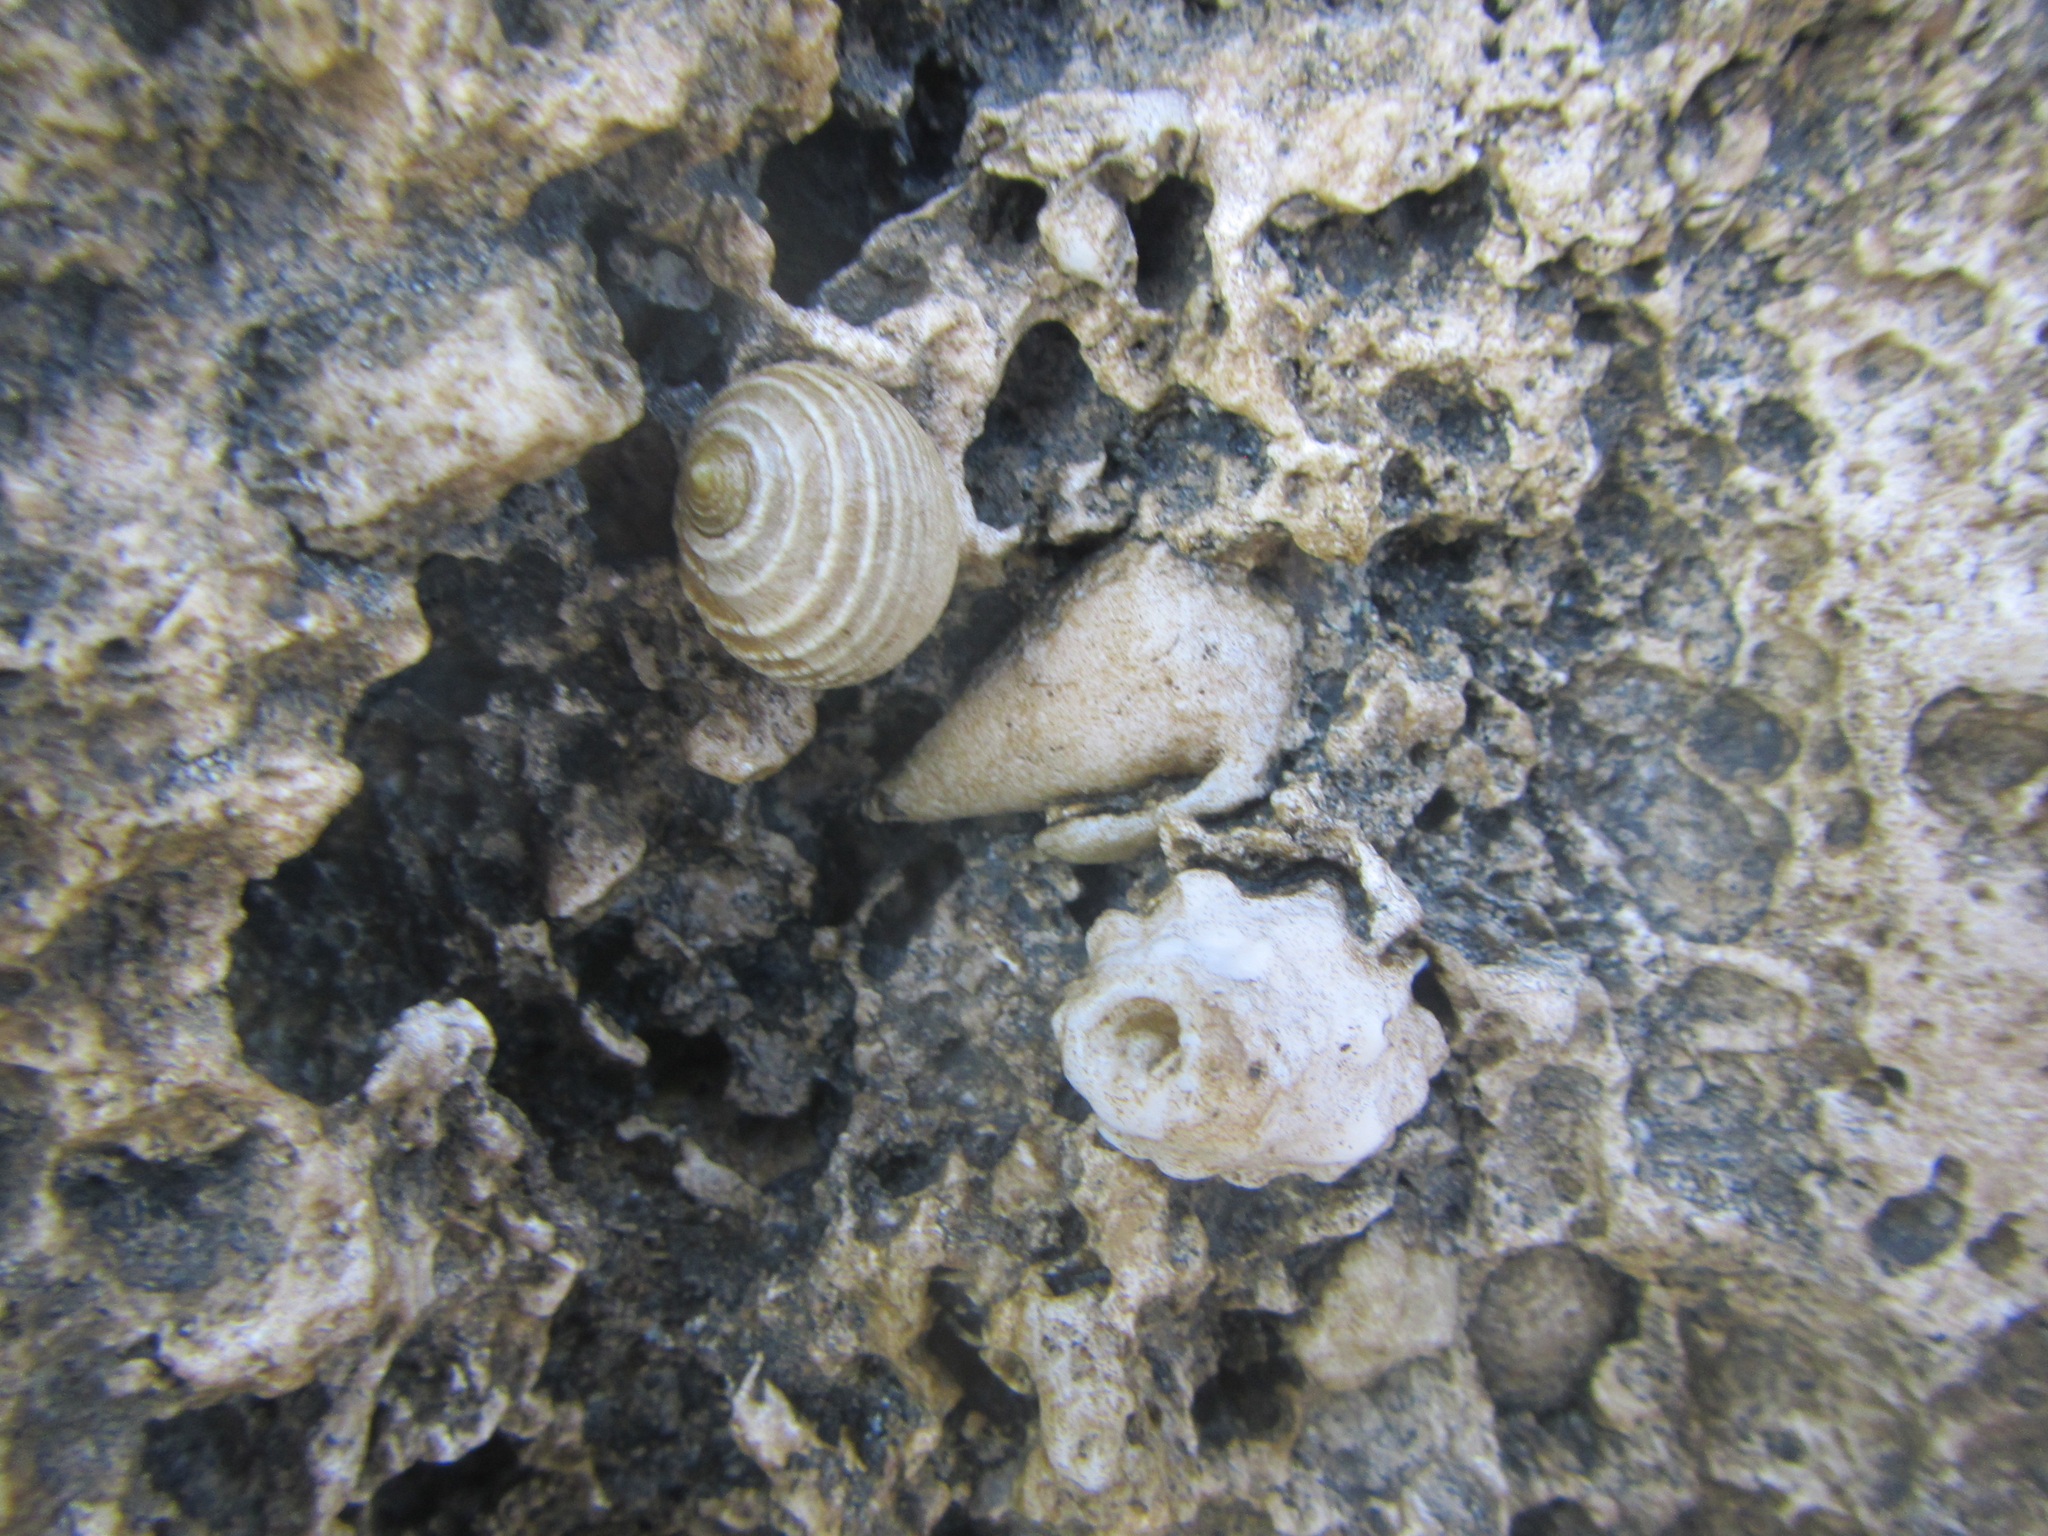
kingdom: Animalia
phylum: Mollusca
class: Gastropoda
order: Cycloneritida
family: Neritidae
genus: Nerita
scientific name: Nerita plicata
